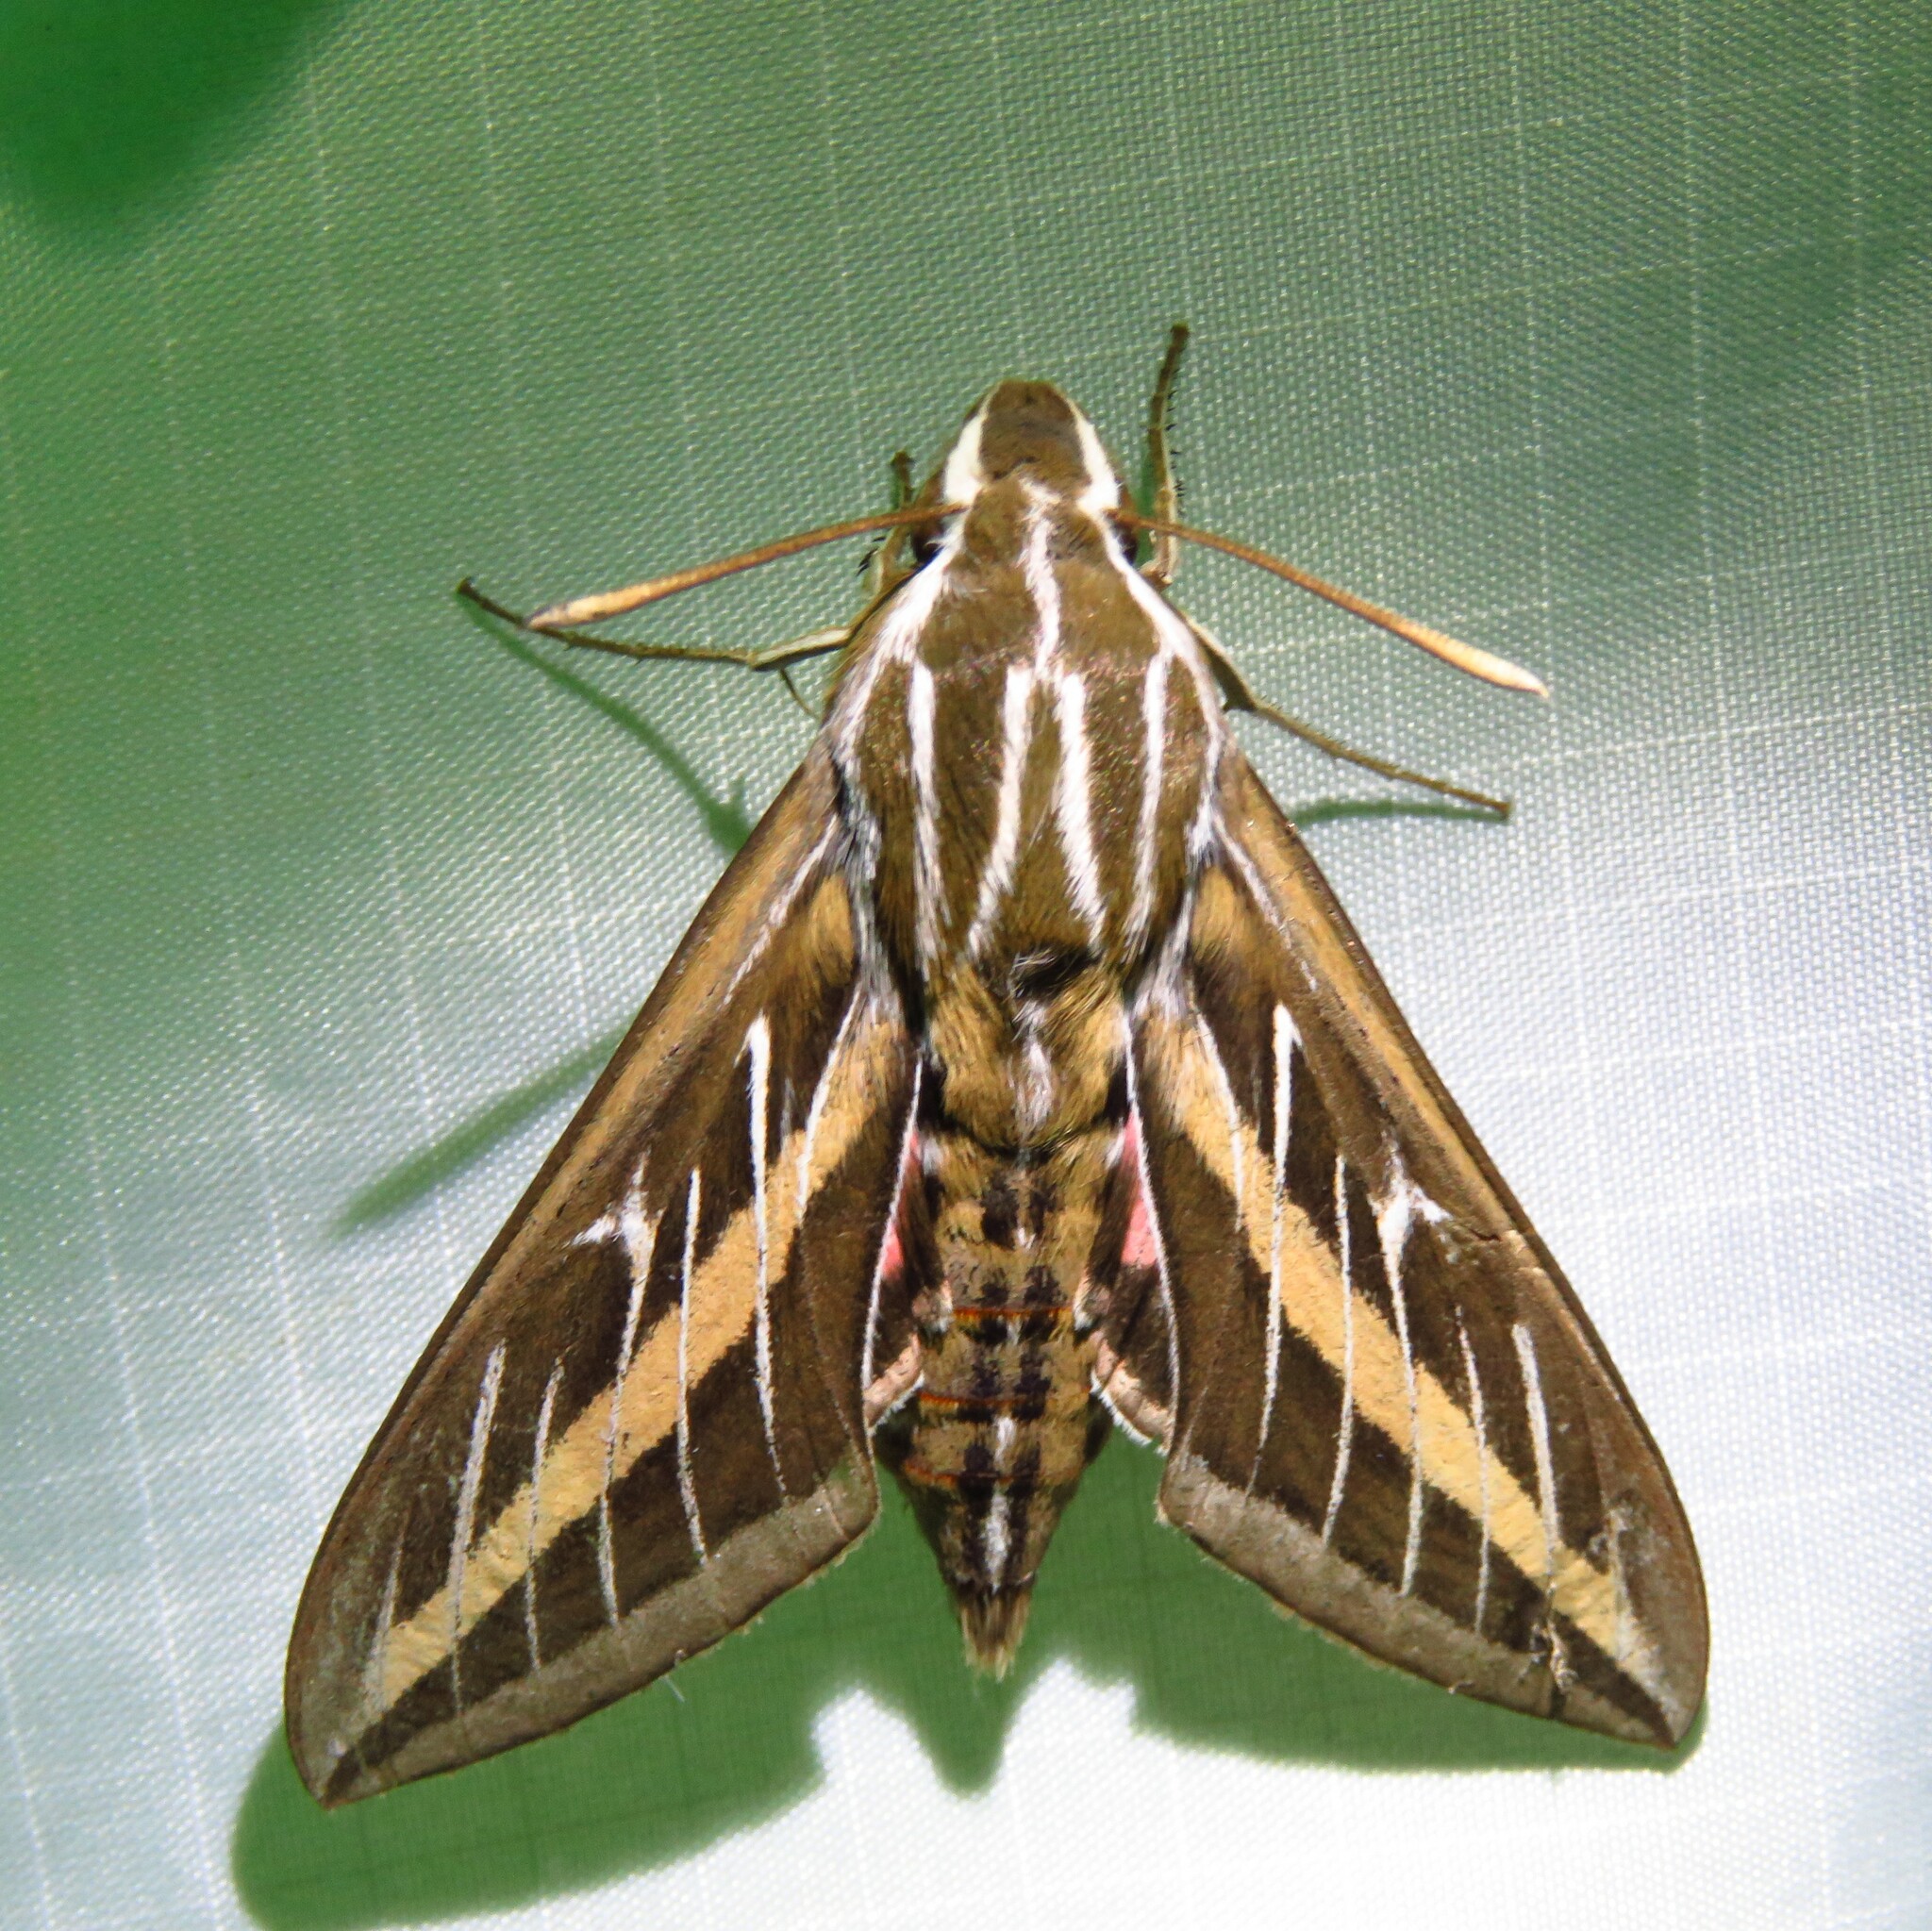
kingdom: Animalia
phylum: Arthropoda
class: Insecta
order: Lepidoptera
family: Sphingidae
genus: Hyles
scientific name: Hyles lineata
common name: White-lined sphinx
